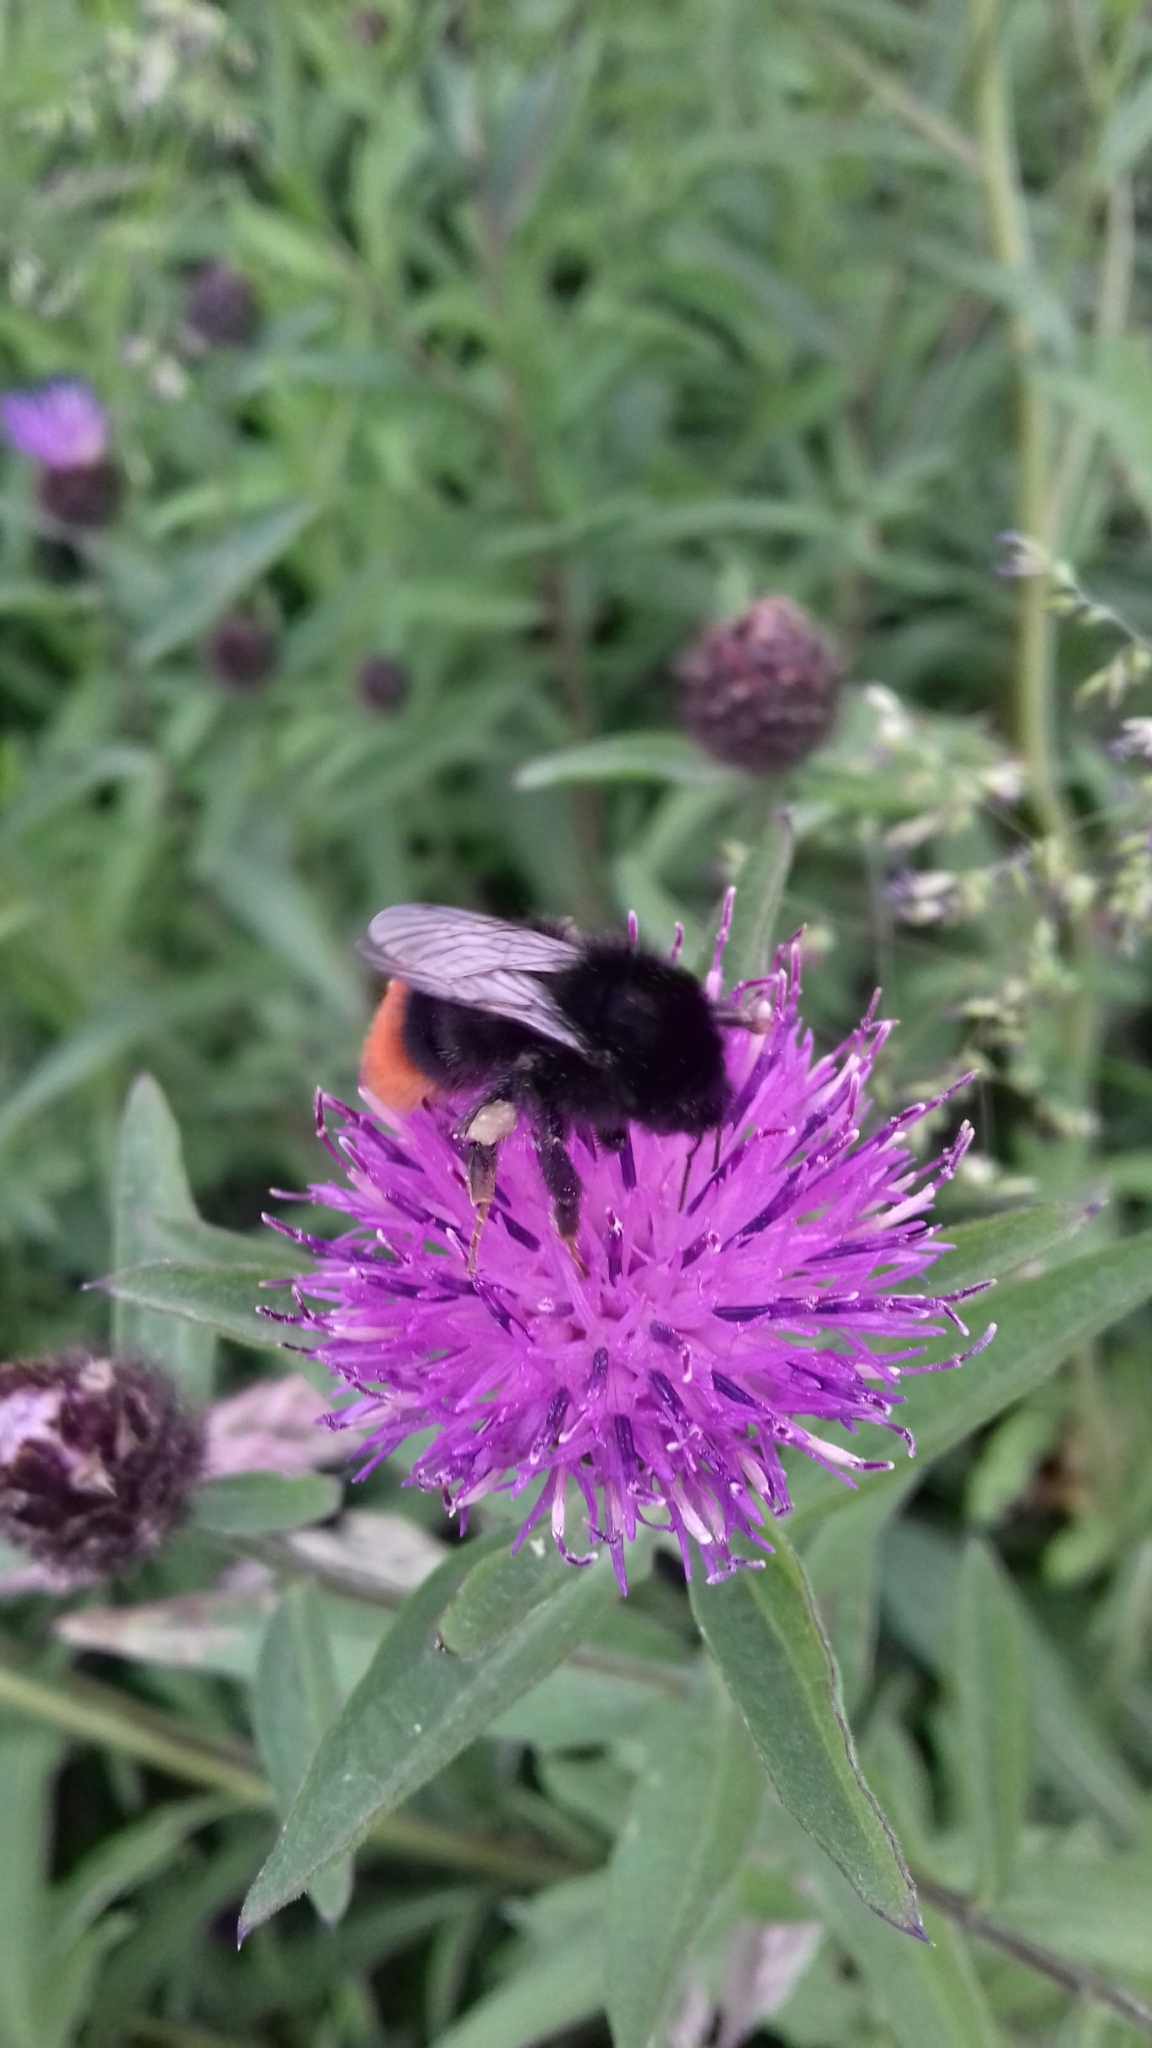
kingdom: Animalia
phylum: Arthropoda
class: Insecta
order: Hymenoptera
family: Apidae
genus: Bombus
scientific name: Bombus lapidarius
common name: Large red-tailed humble-bee
